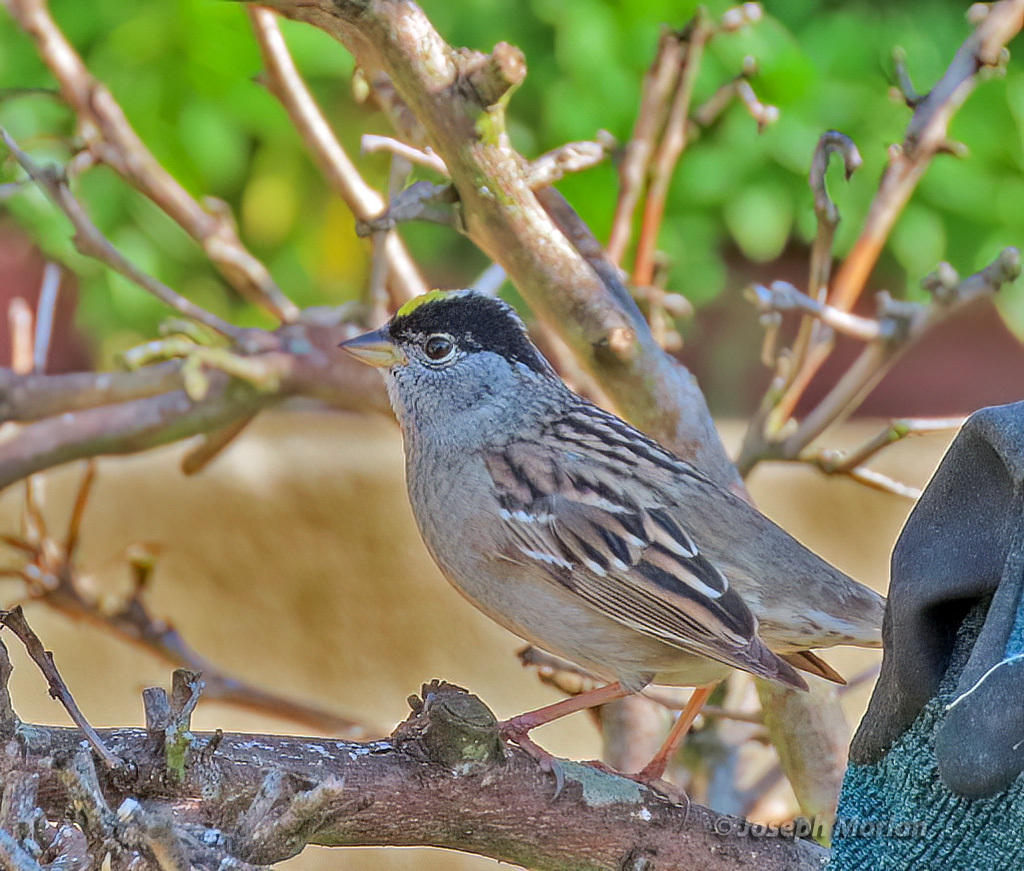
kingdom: Animalia
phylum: Chordata
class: Aves
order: Passeriformes
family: Passerellidae
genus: Zonotrichia
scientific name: Zonotrichia atricapilla
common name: Golden-crowned sparrow
